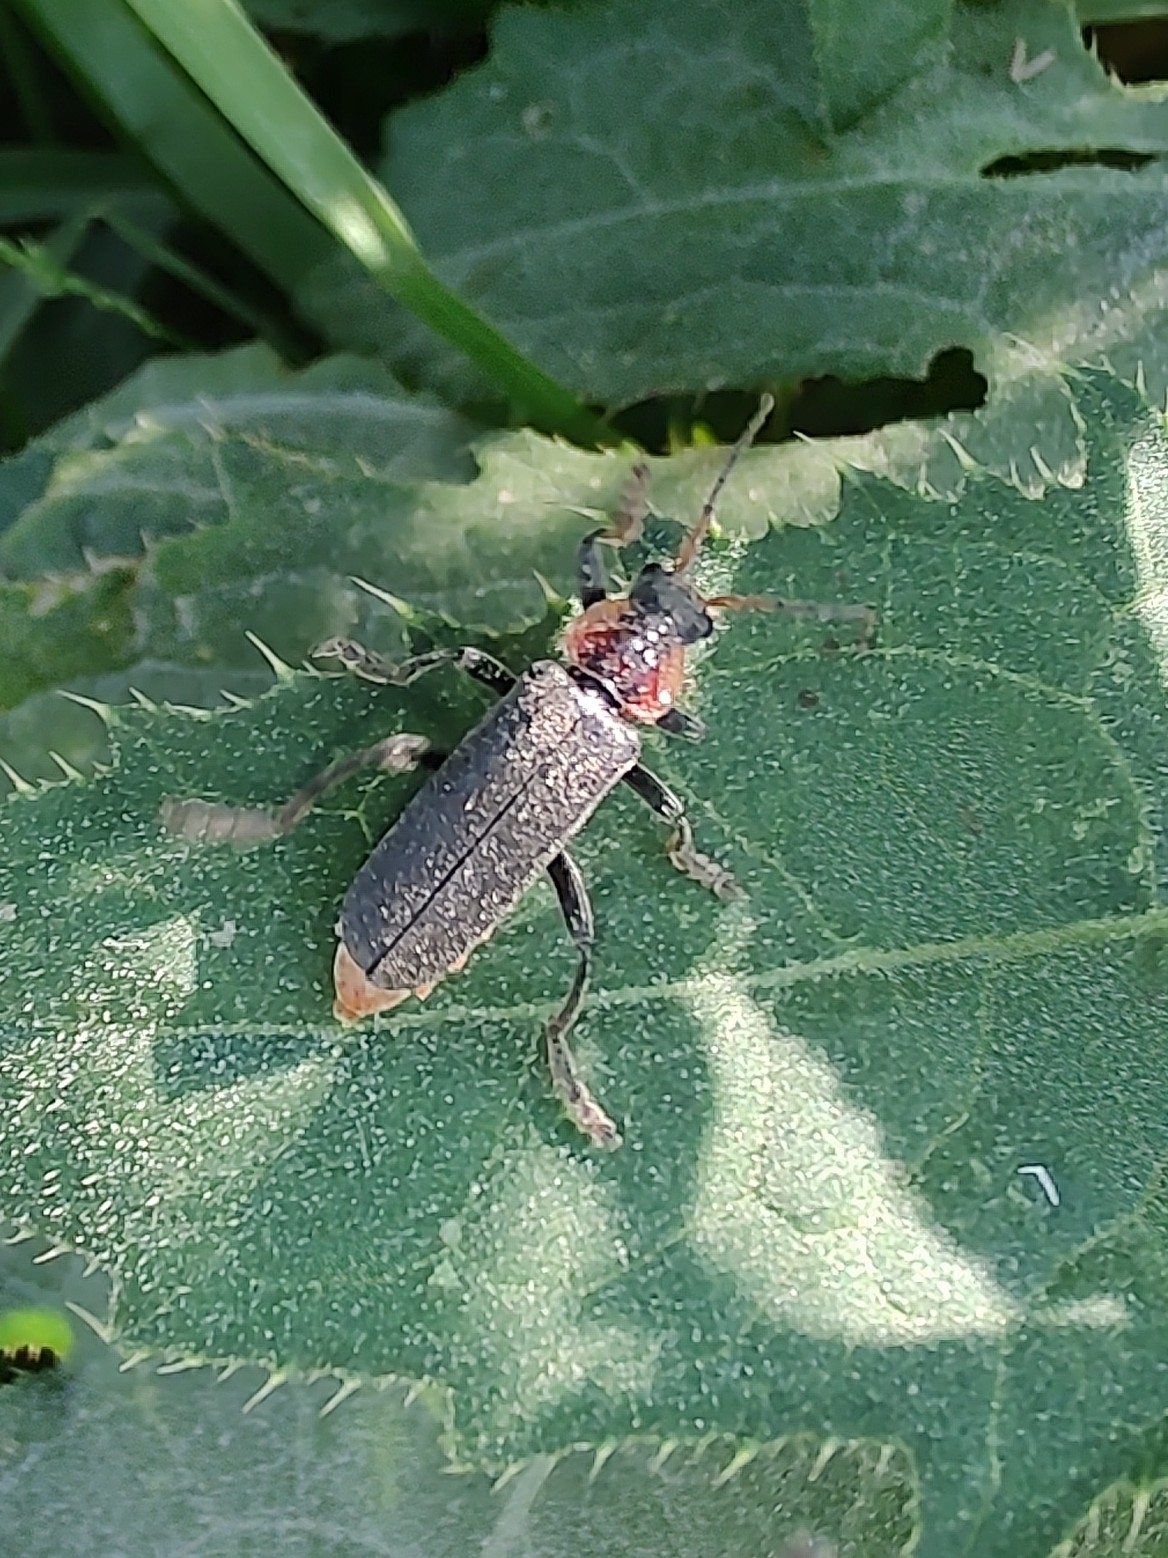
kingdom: Animalia
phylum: Arthropoda
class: Insecta
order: Coleoptera
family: Cantharidae
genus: Cantharis
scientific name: Cantharis fusca
